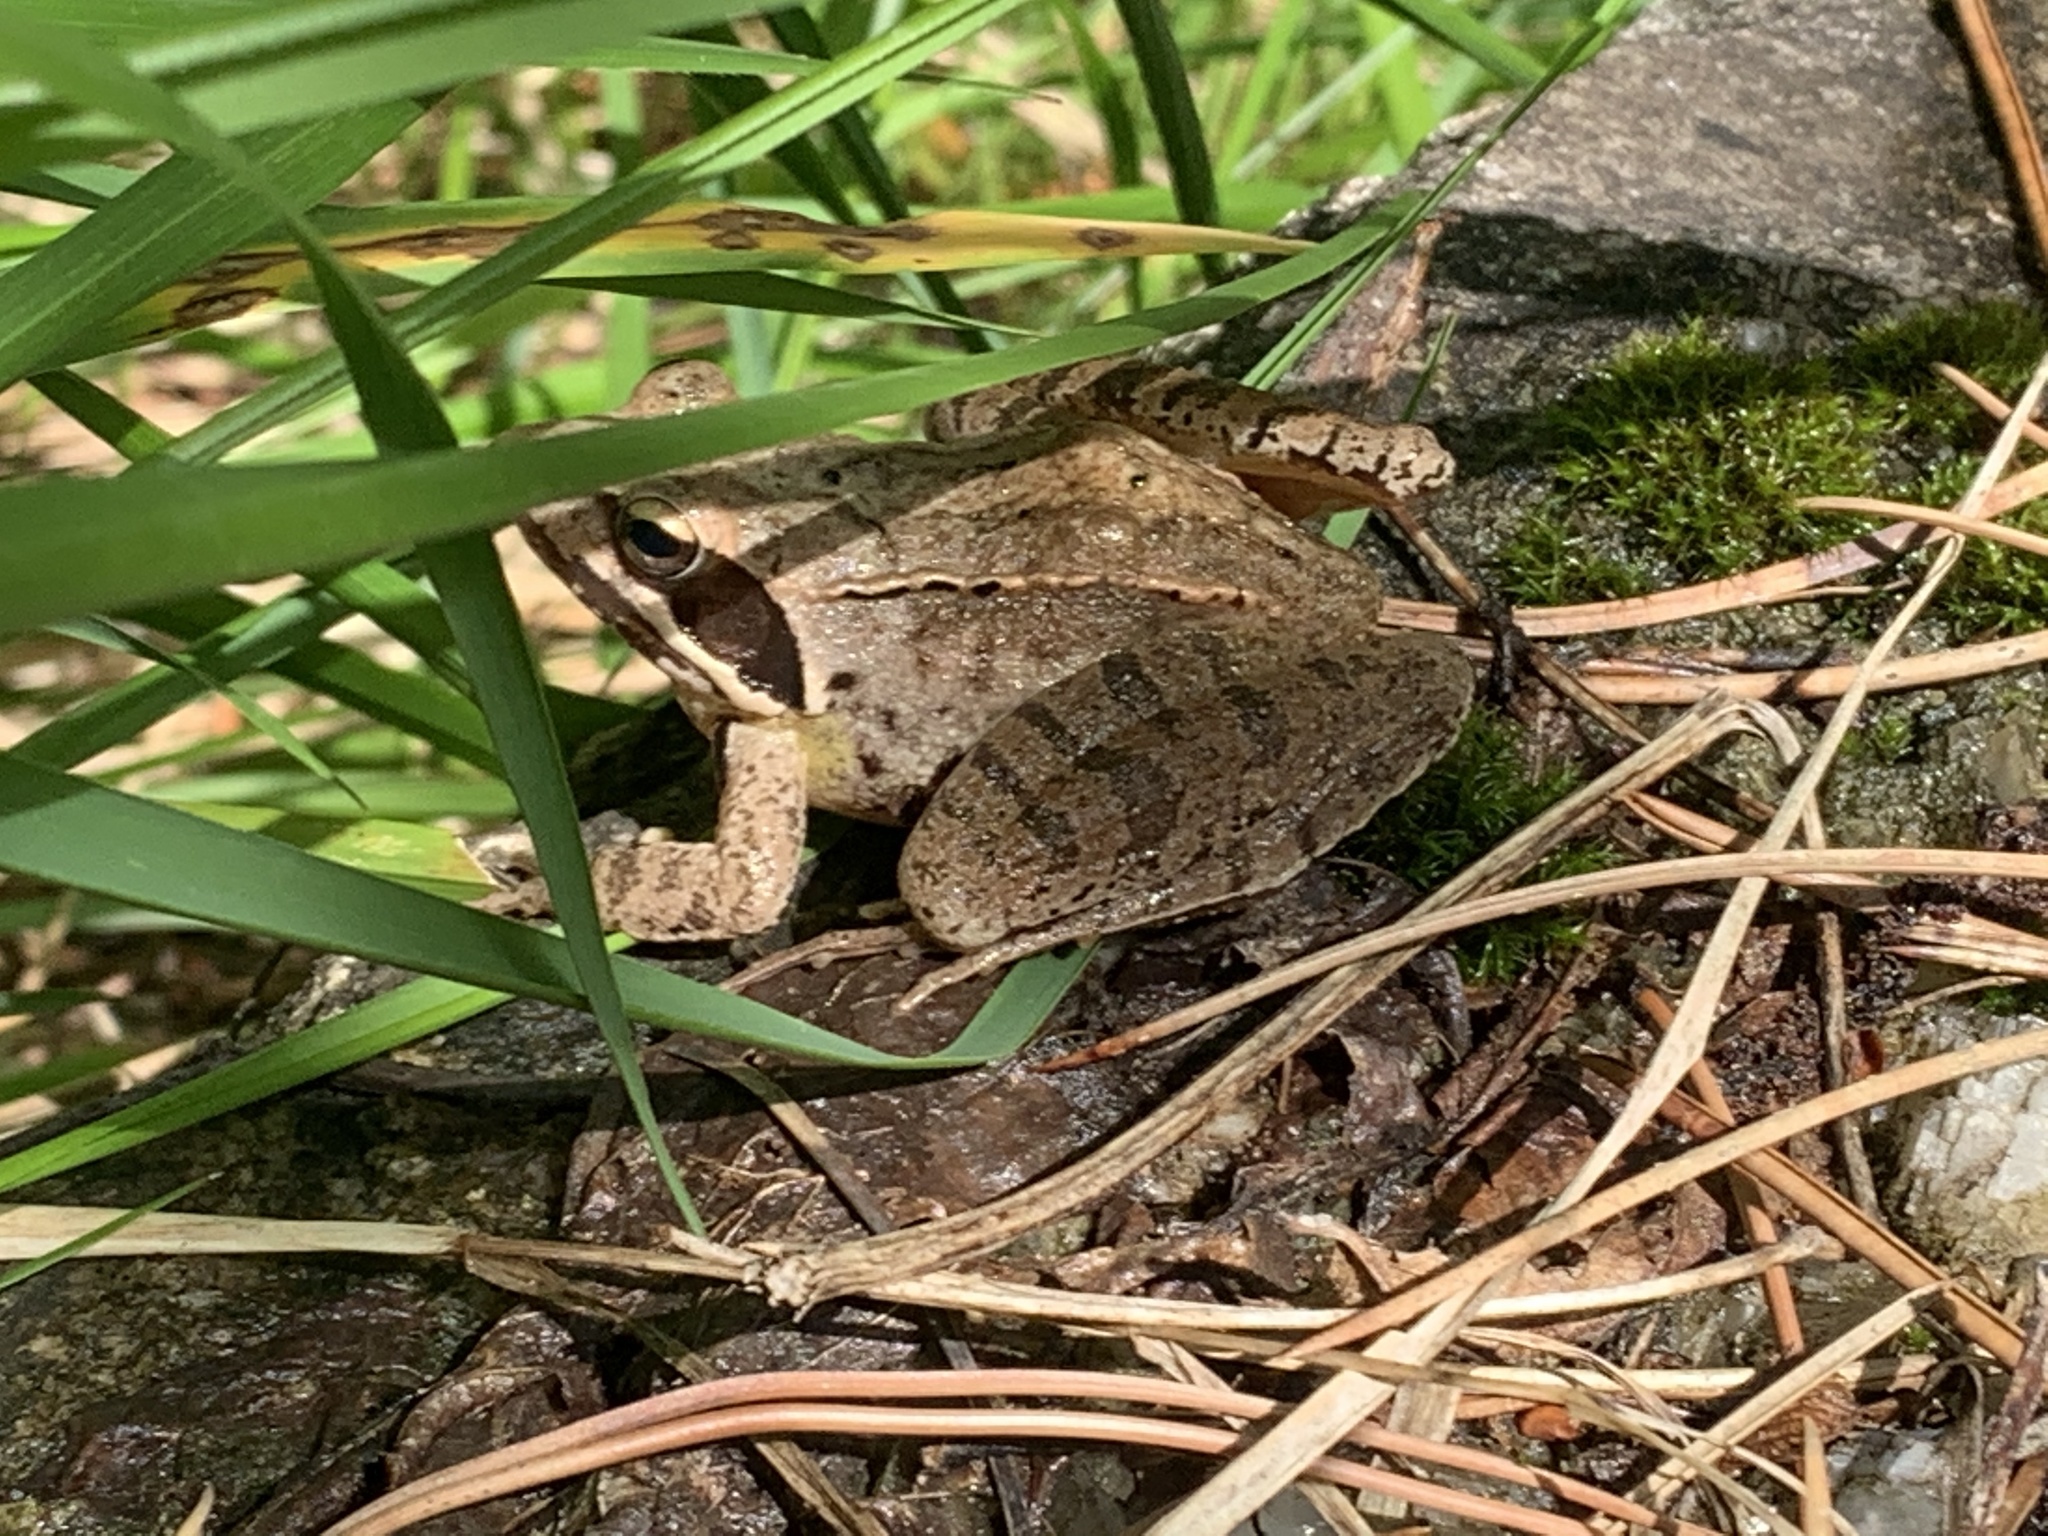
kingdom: Animalia
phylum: Chordata
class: Amphibia
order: Anura
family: Ranidae
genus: Rana
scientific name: Rana dalmatina
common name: Agile frog
